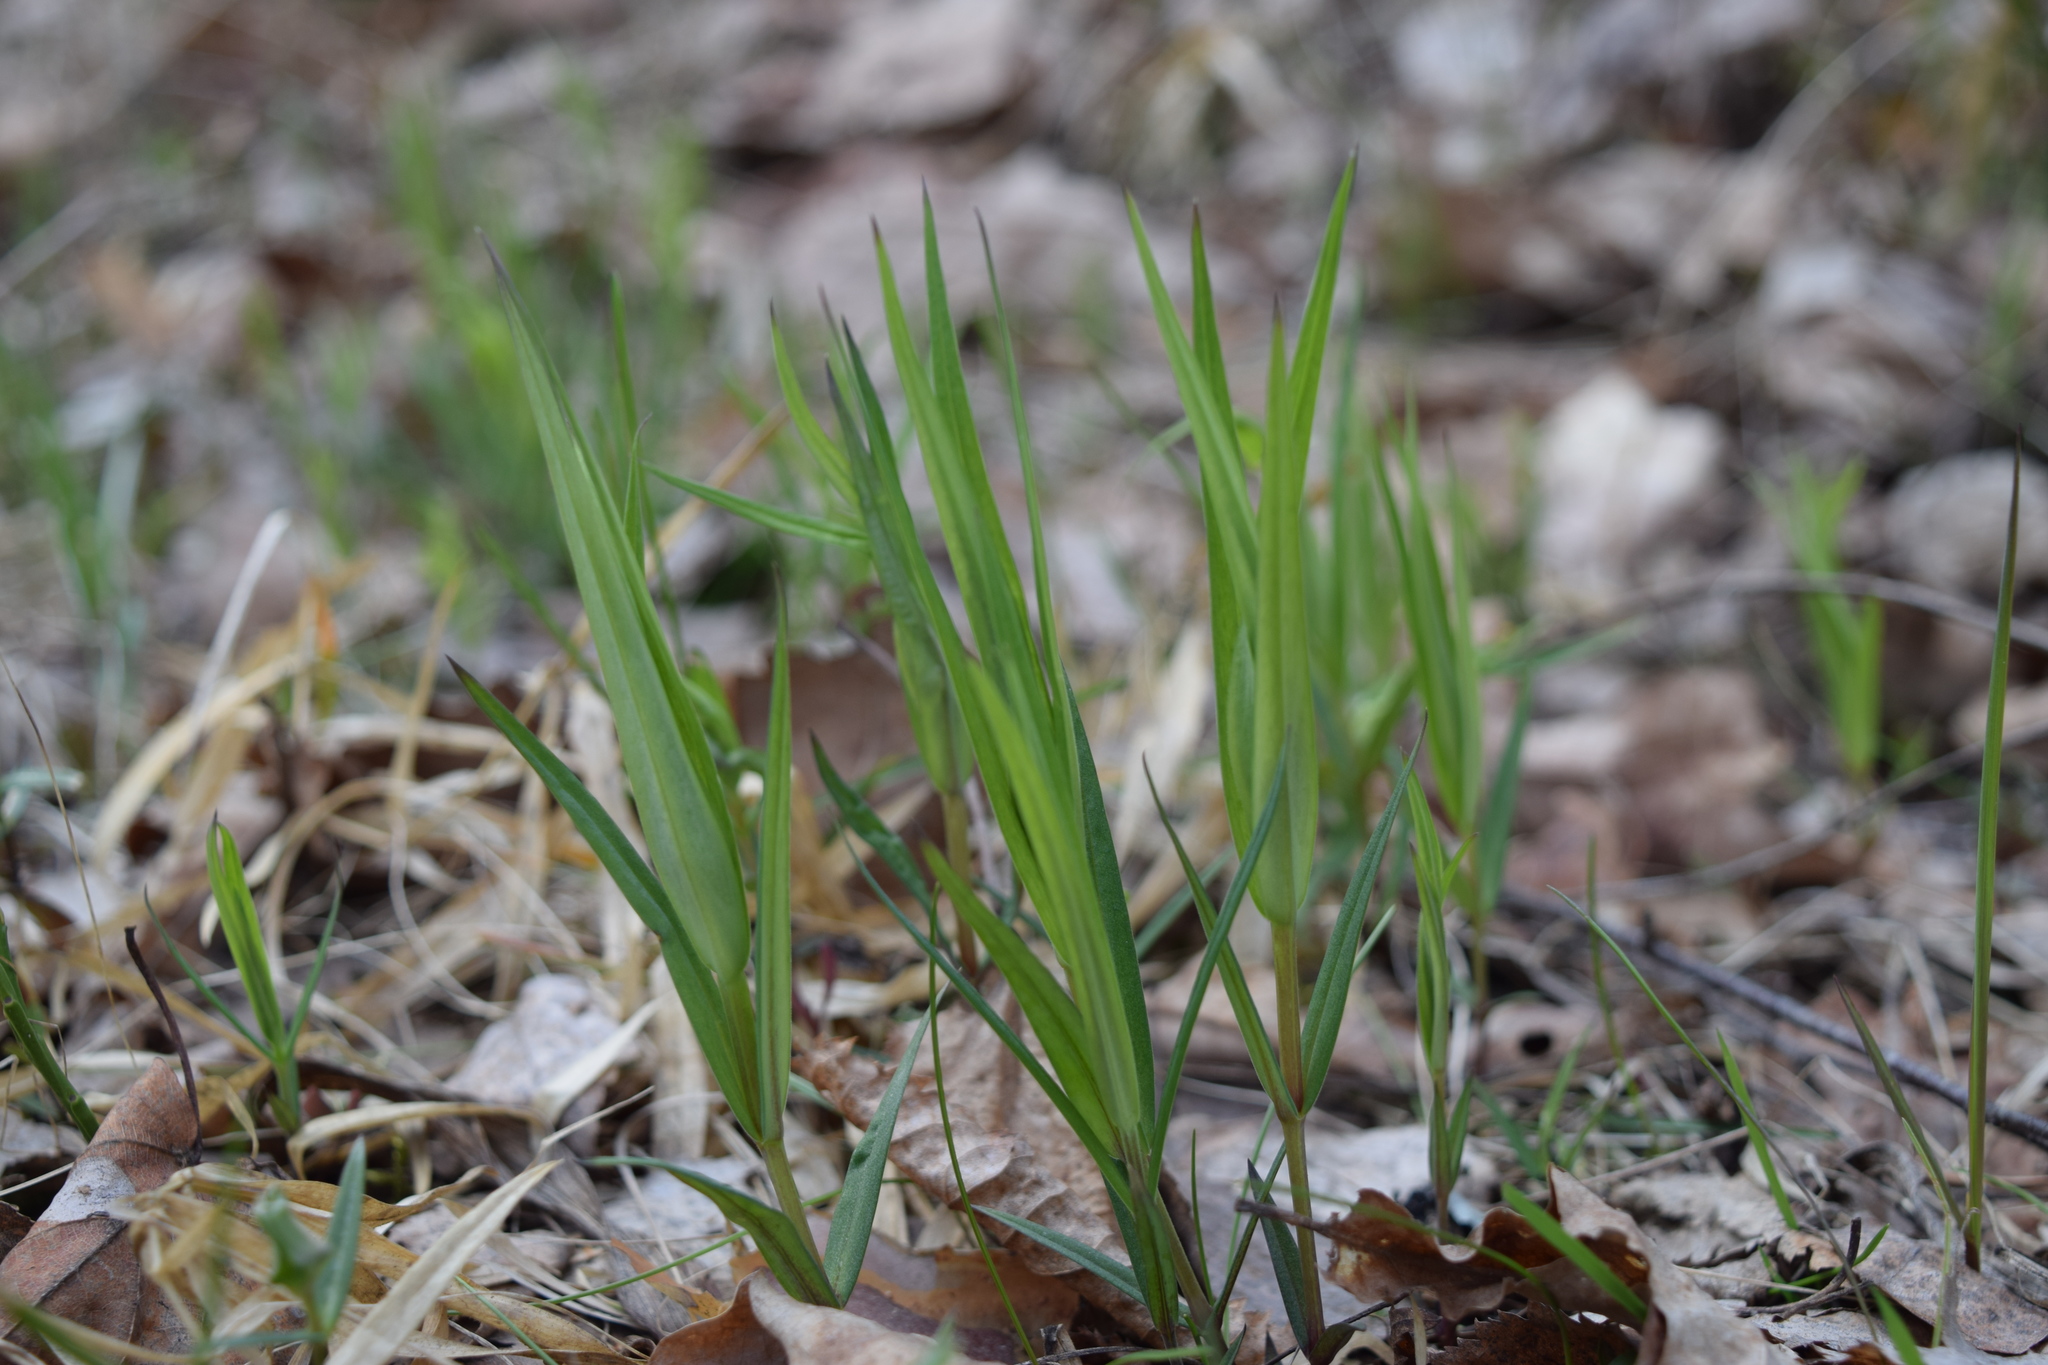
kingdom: Plantae
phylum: Tracheophyta
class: Magnoliopsida
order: Caryophyllales
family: Caryophyllaceae
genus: Rabelera
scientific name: Rabelera holostea
